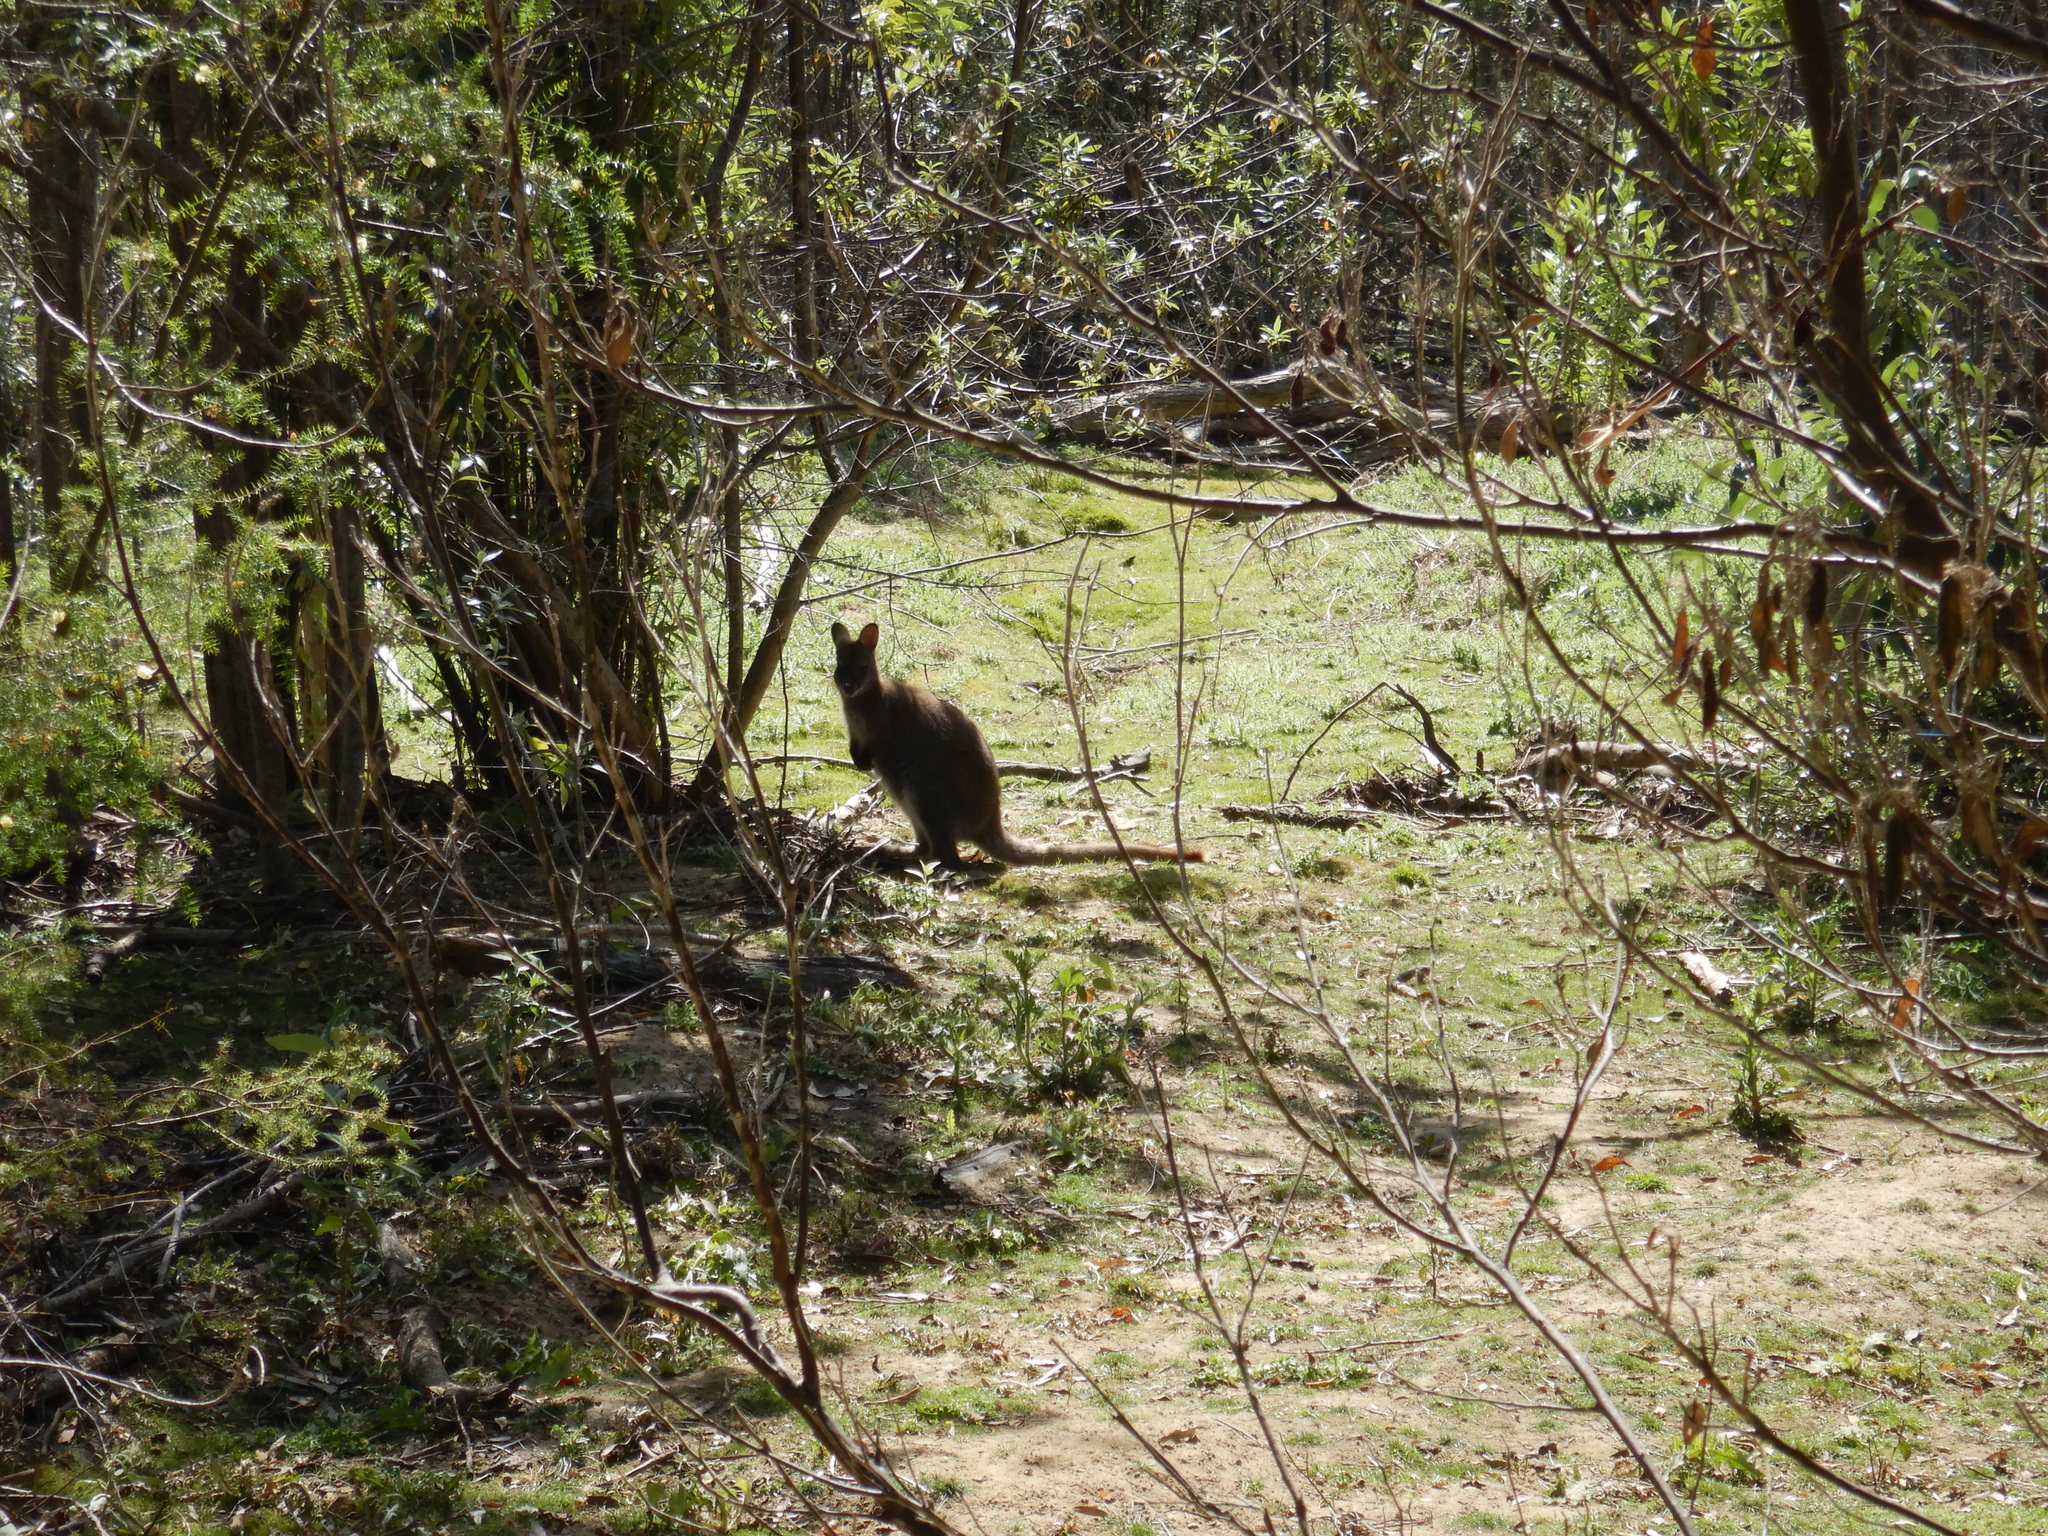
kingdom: Animalia
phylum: Chordata
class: Mammalia
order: Diprotodontia
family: Macropodidae
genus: Notamacropus
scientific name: Notamacropus rufogriseus
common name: Red-necked wallaby
